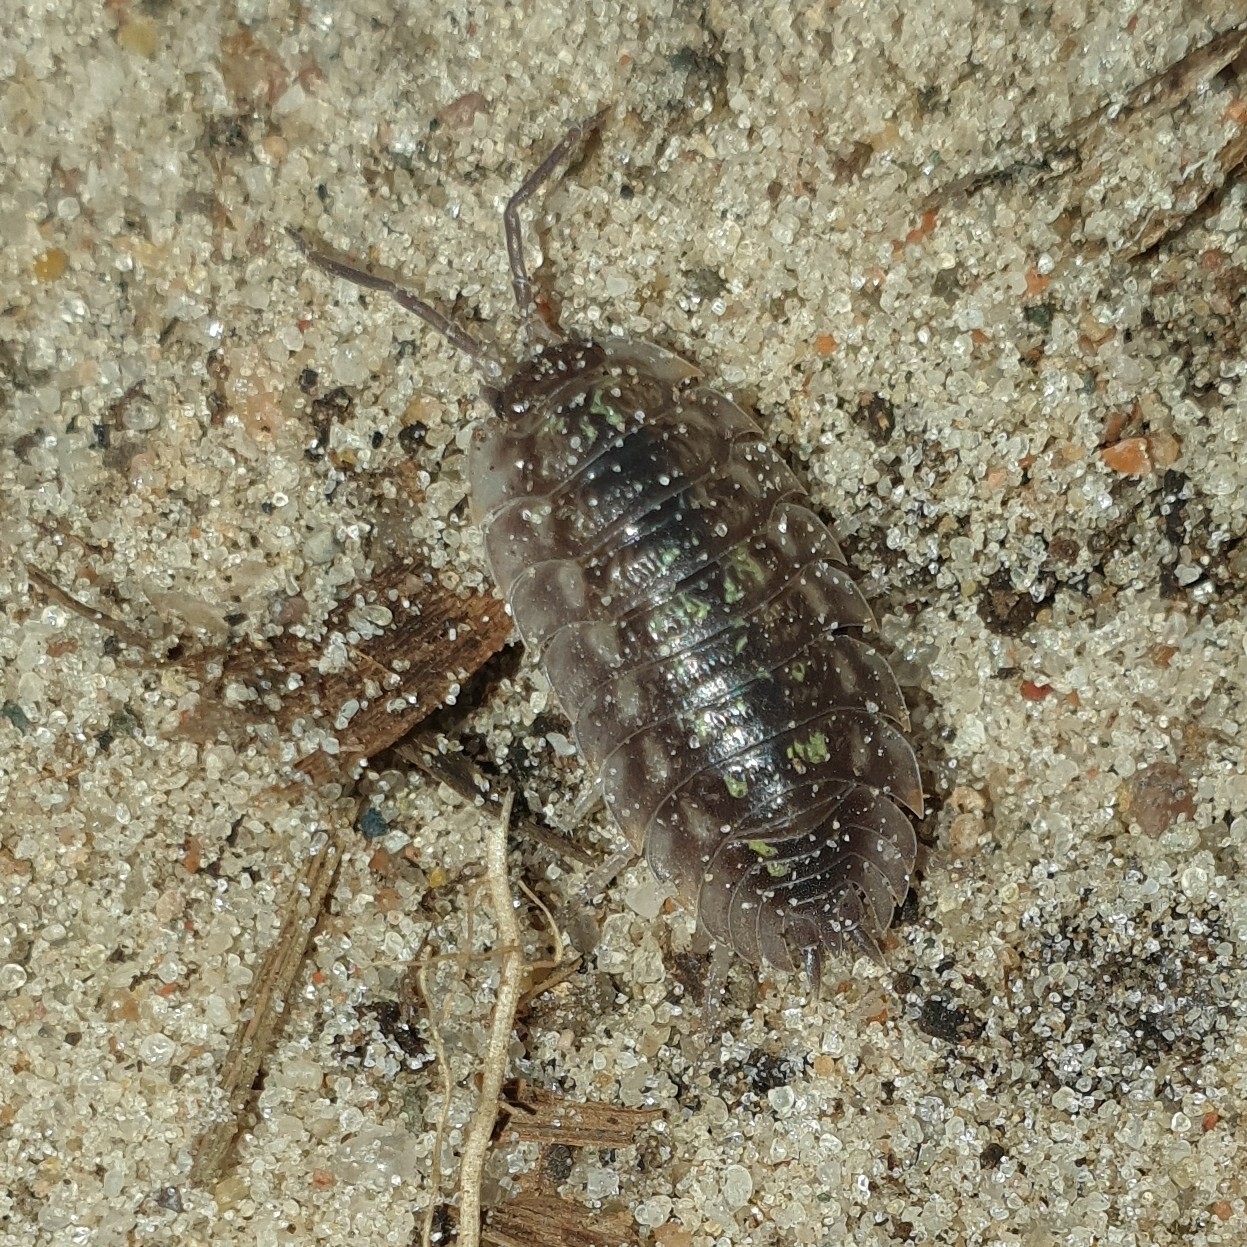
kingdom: Animalia
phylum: Arthropoda
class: Malacostraca
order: Isopoda
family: Oniscidae
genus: Oniscus
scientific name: Oniscus asellus
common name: Common shiny woodlouse
